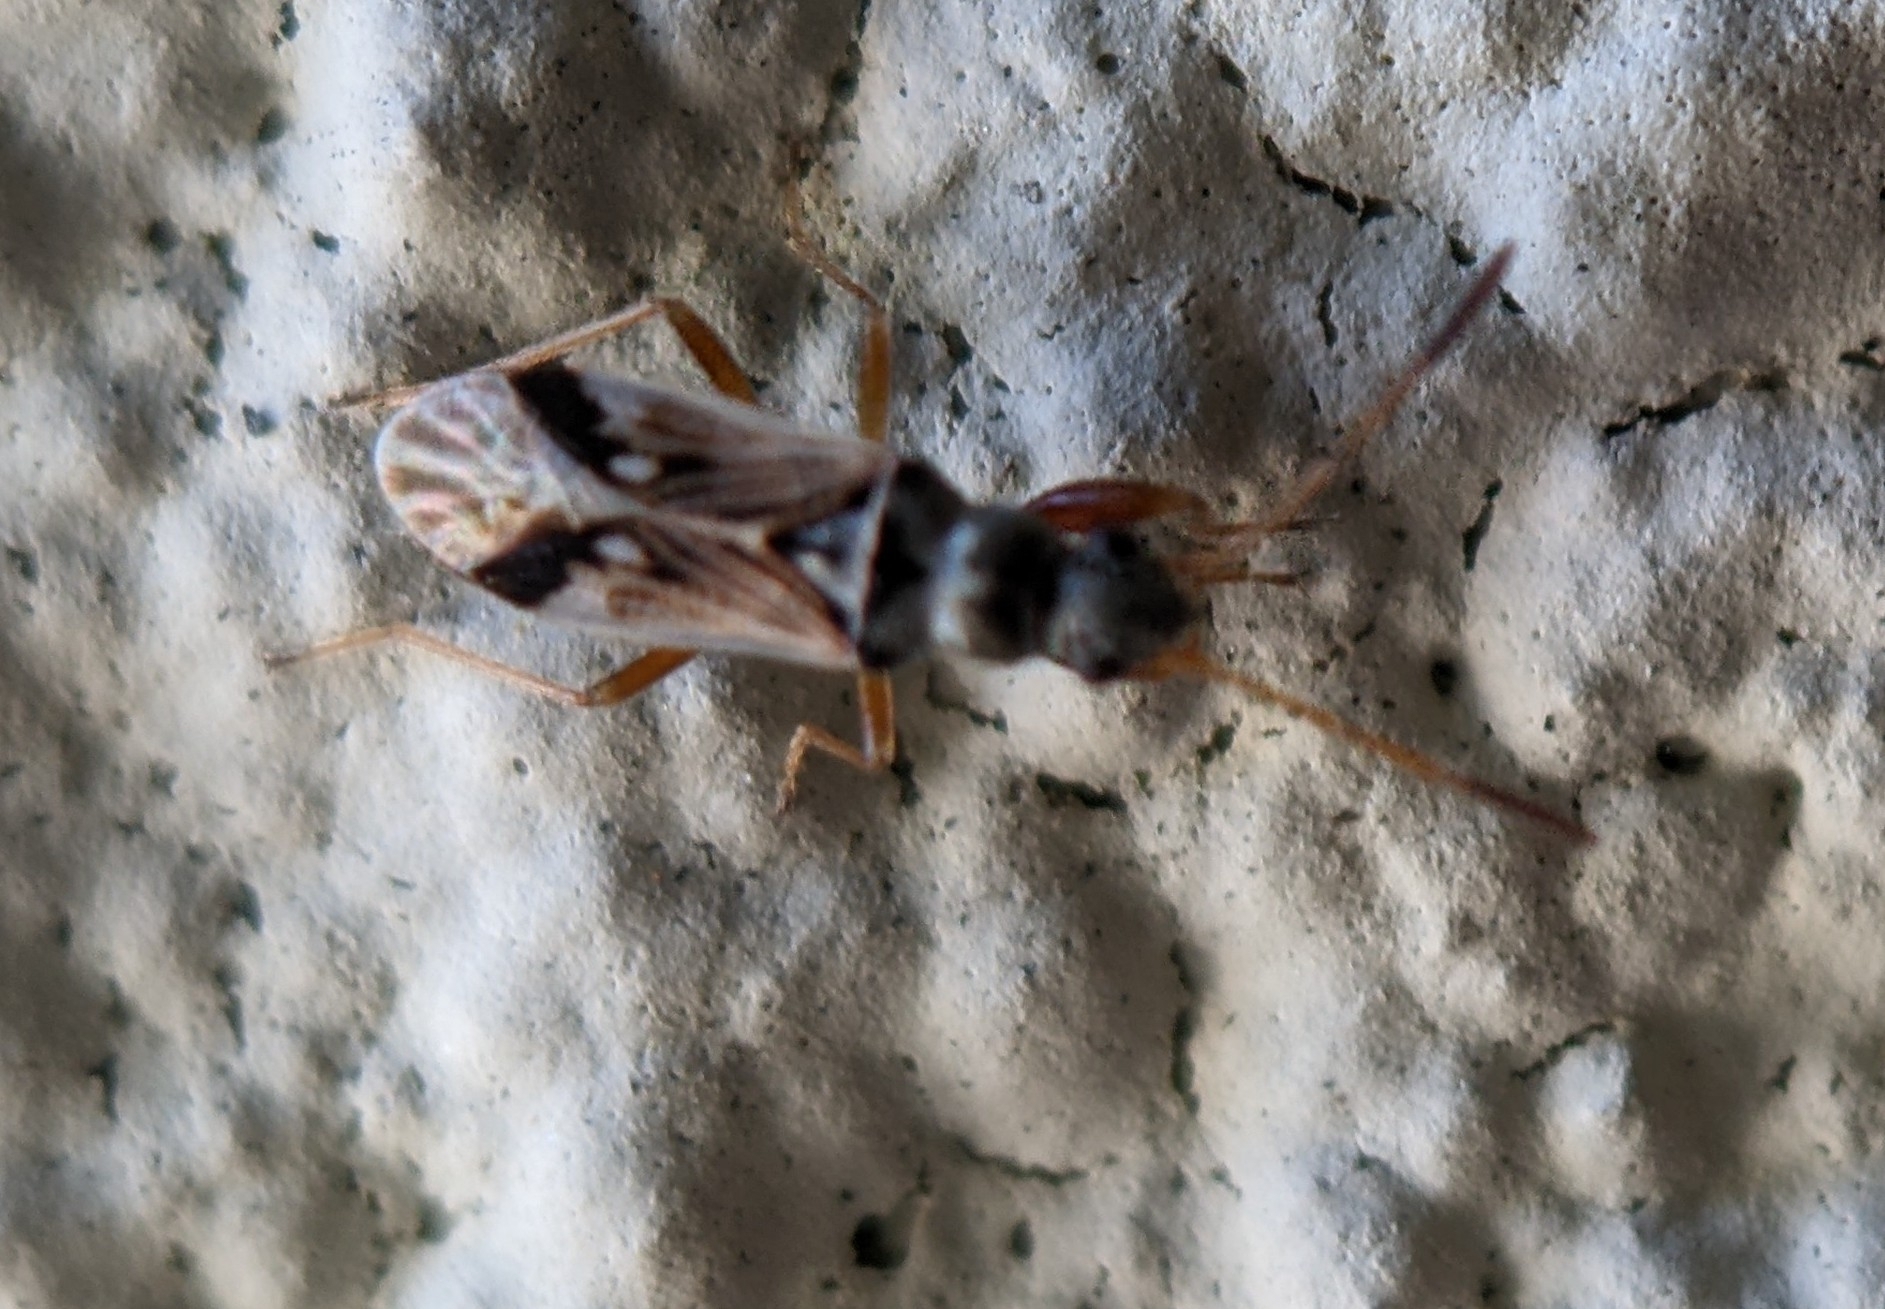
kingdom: Animalia
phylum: Arthropoda
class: Insecta
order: Hemiptera
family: Rhyparochromidae
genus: Pseudopachybrachius
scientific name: Pseudopachybrachius vinctus
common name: Dirt-colored seed bug
